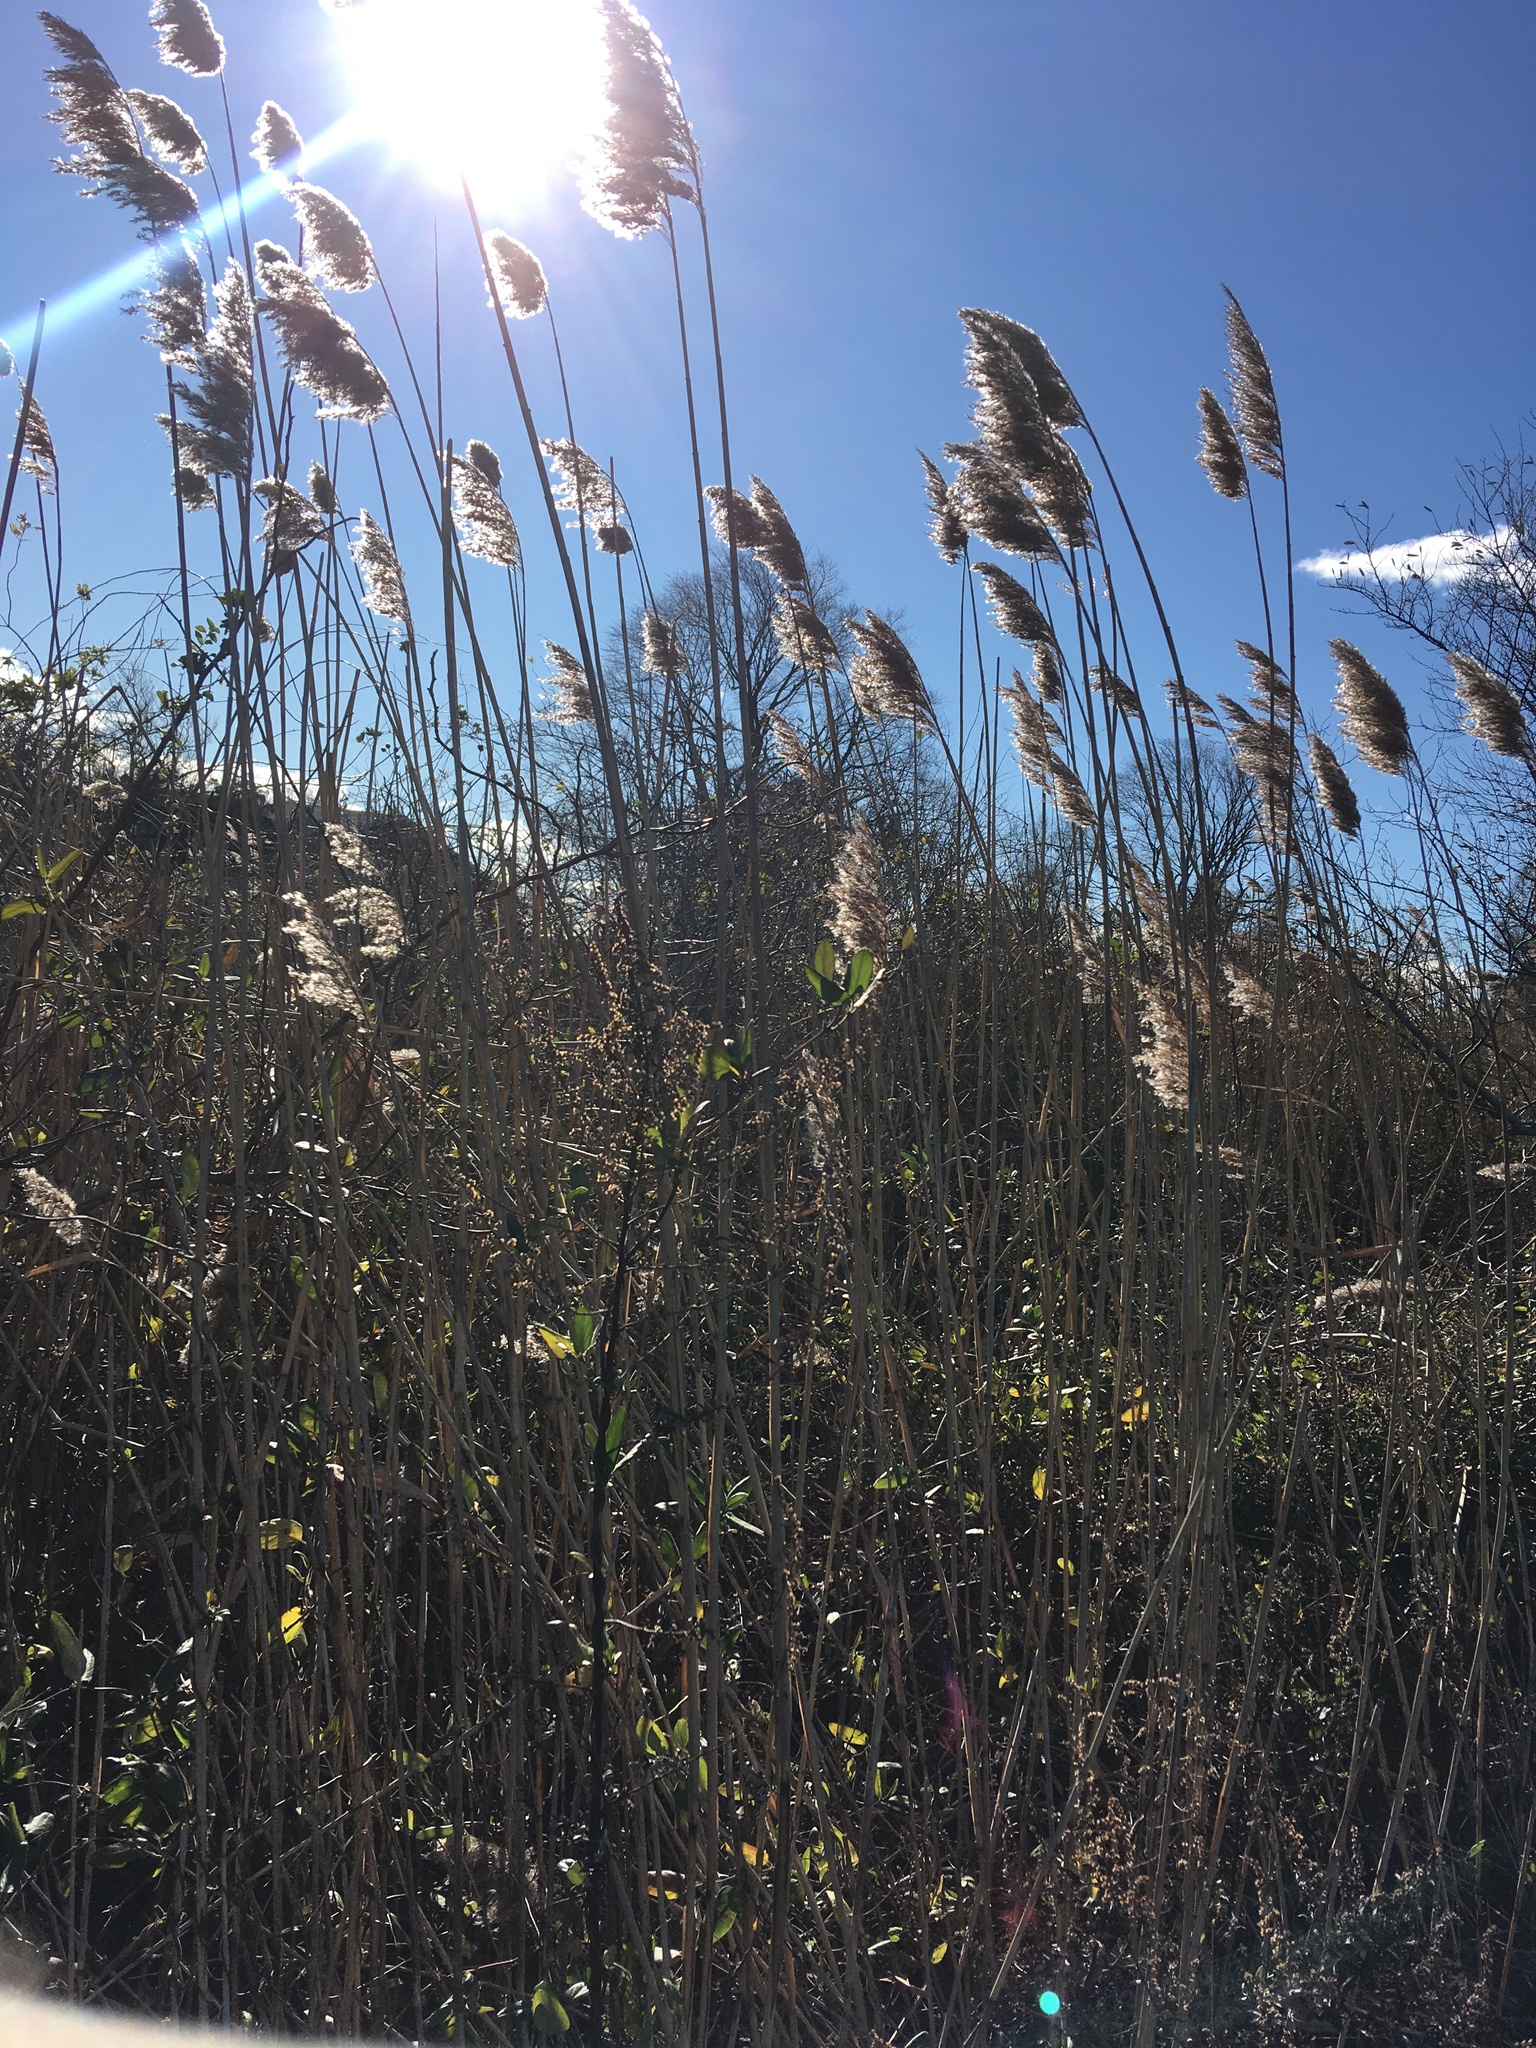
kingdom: Plantae
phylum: Tracheophyta
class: Liliopsida
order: Poales
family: Poaceae
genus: Phragmites
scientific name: Phragmites australis
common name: Common reed
